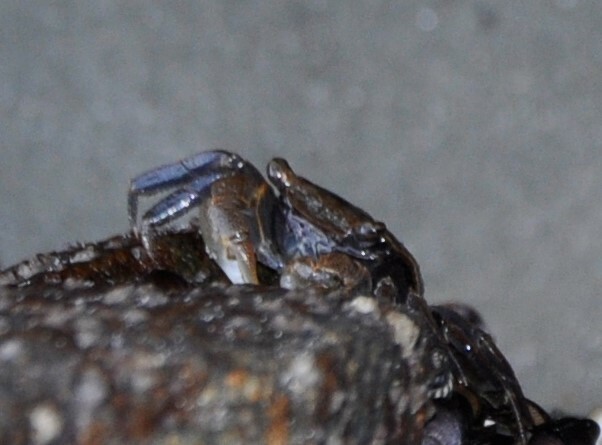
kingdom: Animalia
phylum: Arthropoda
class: Malacostraca
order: Decapoda
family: Sesarmidae
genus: Armases
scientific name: Armases cinereum
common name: Squareback marsh crab
